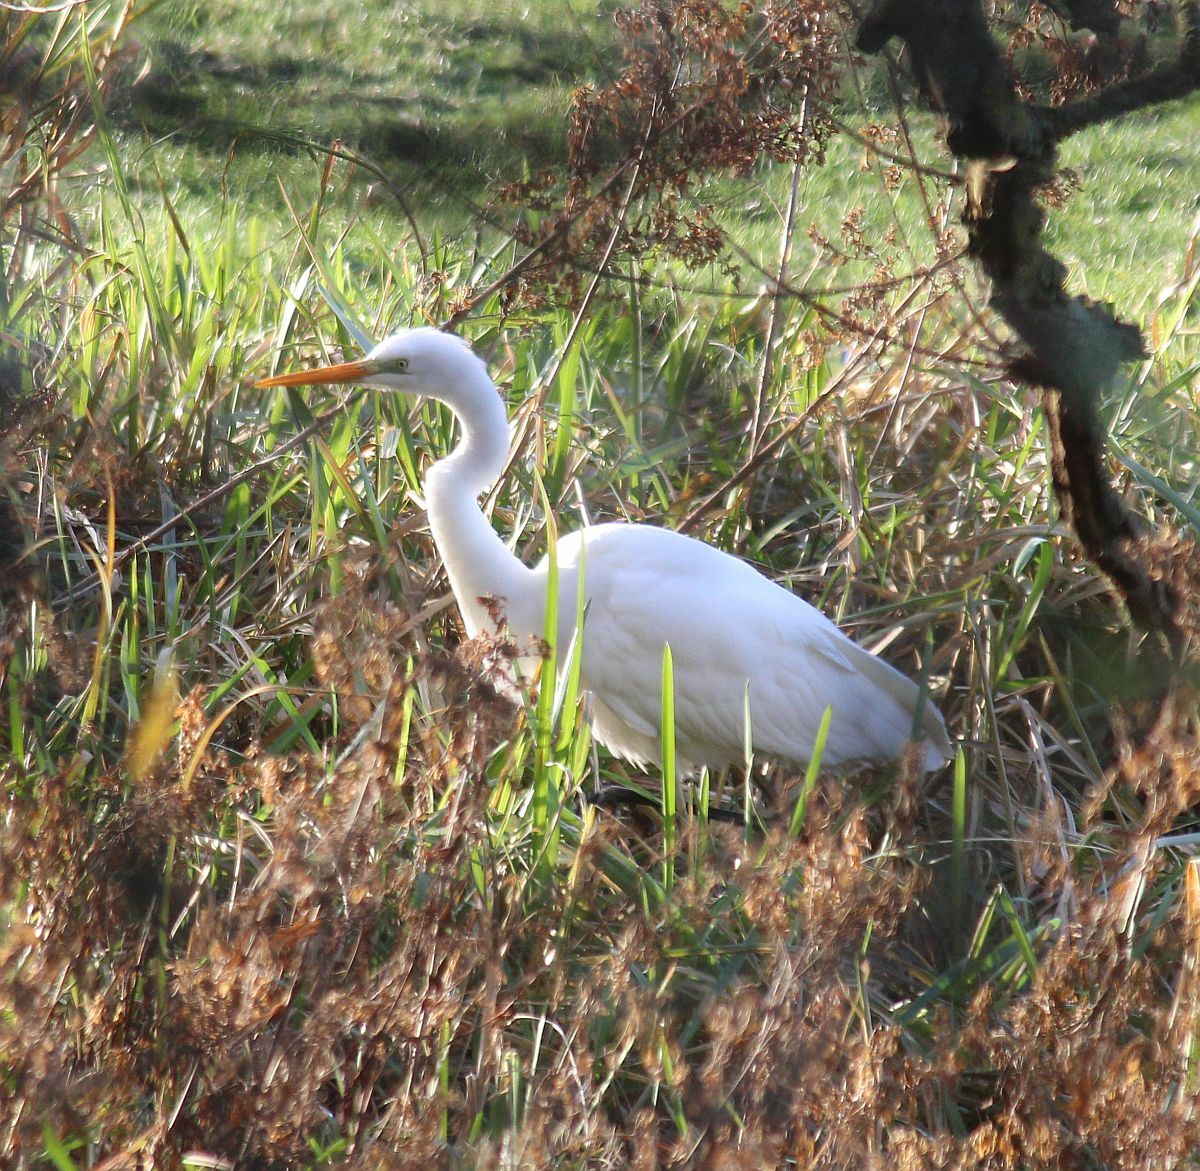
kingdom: Animalia
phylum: Chordata
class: Aves
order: Pelecaniformes
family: Ardeidae
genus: Ardea
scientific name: Ardea alba
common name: Great egret
